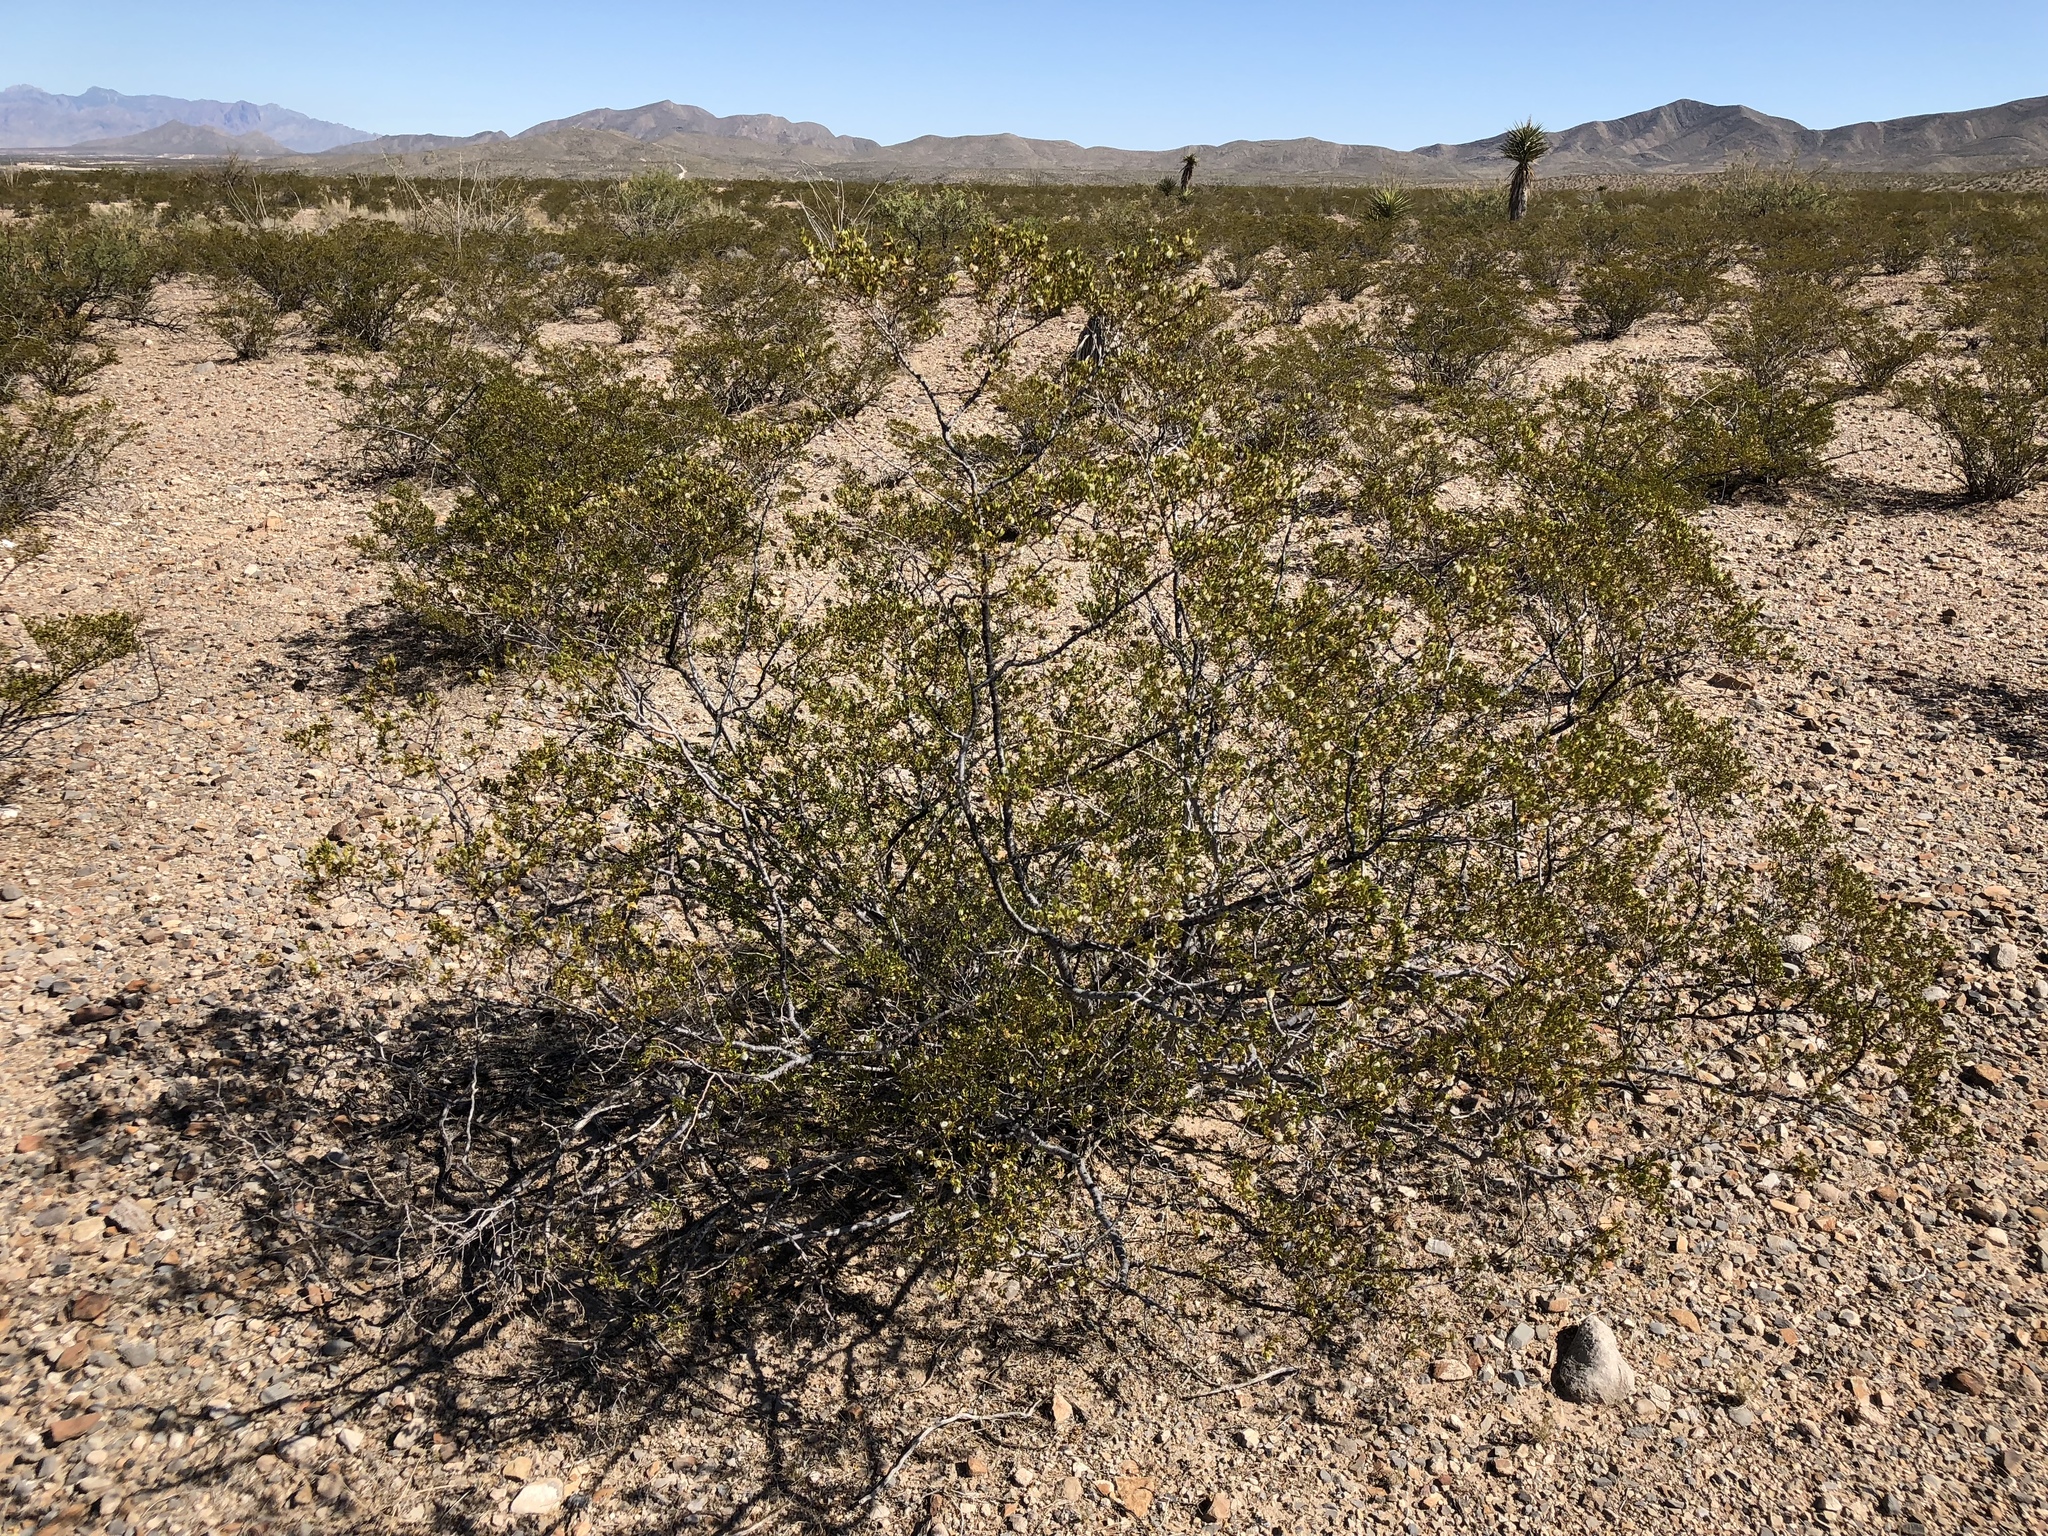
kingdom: Plantae
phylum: Tracheophyta
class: Magnoliopsida
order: Zygophyllales
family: Zygophyllaceae
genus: Larrea
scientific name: Larrea tridentata
